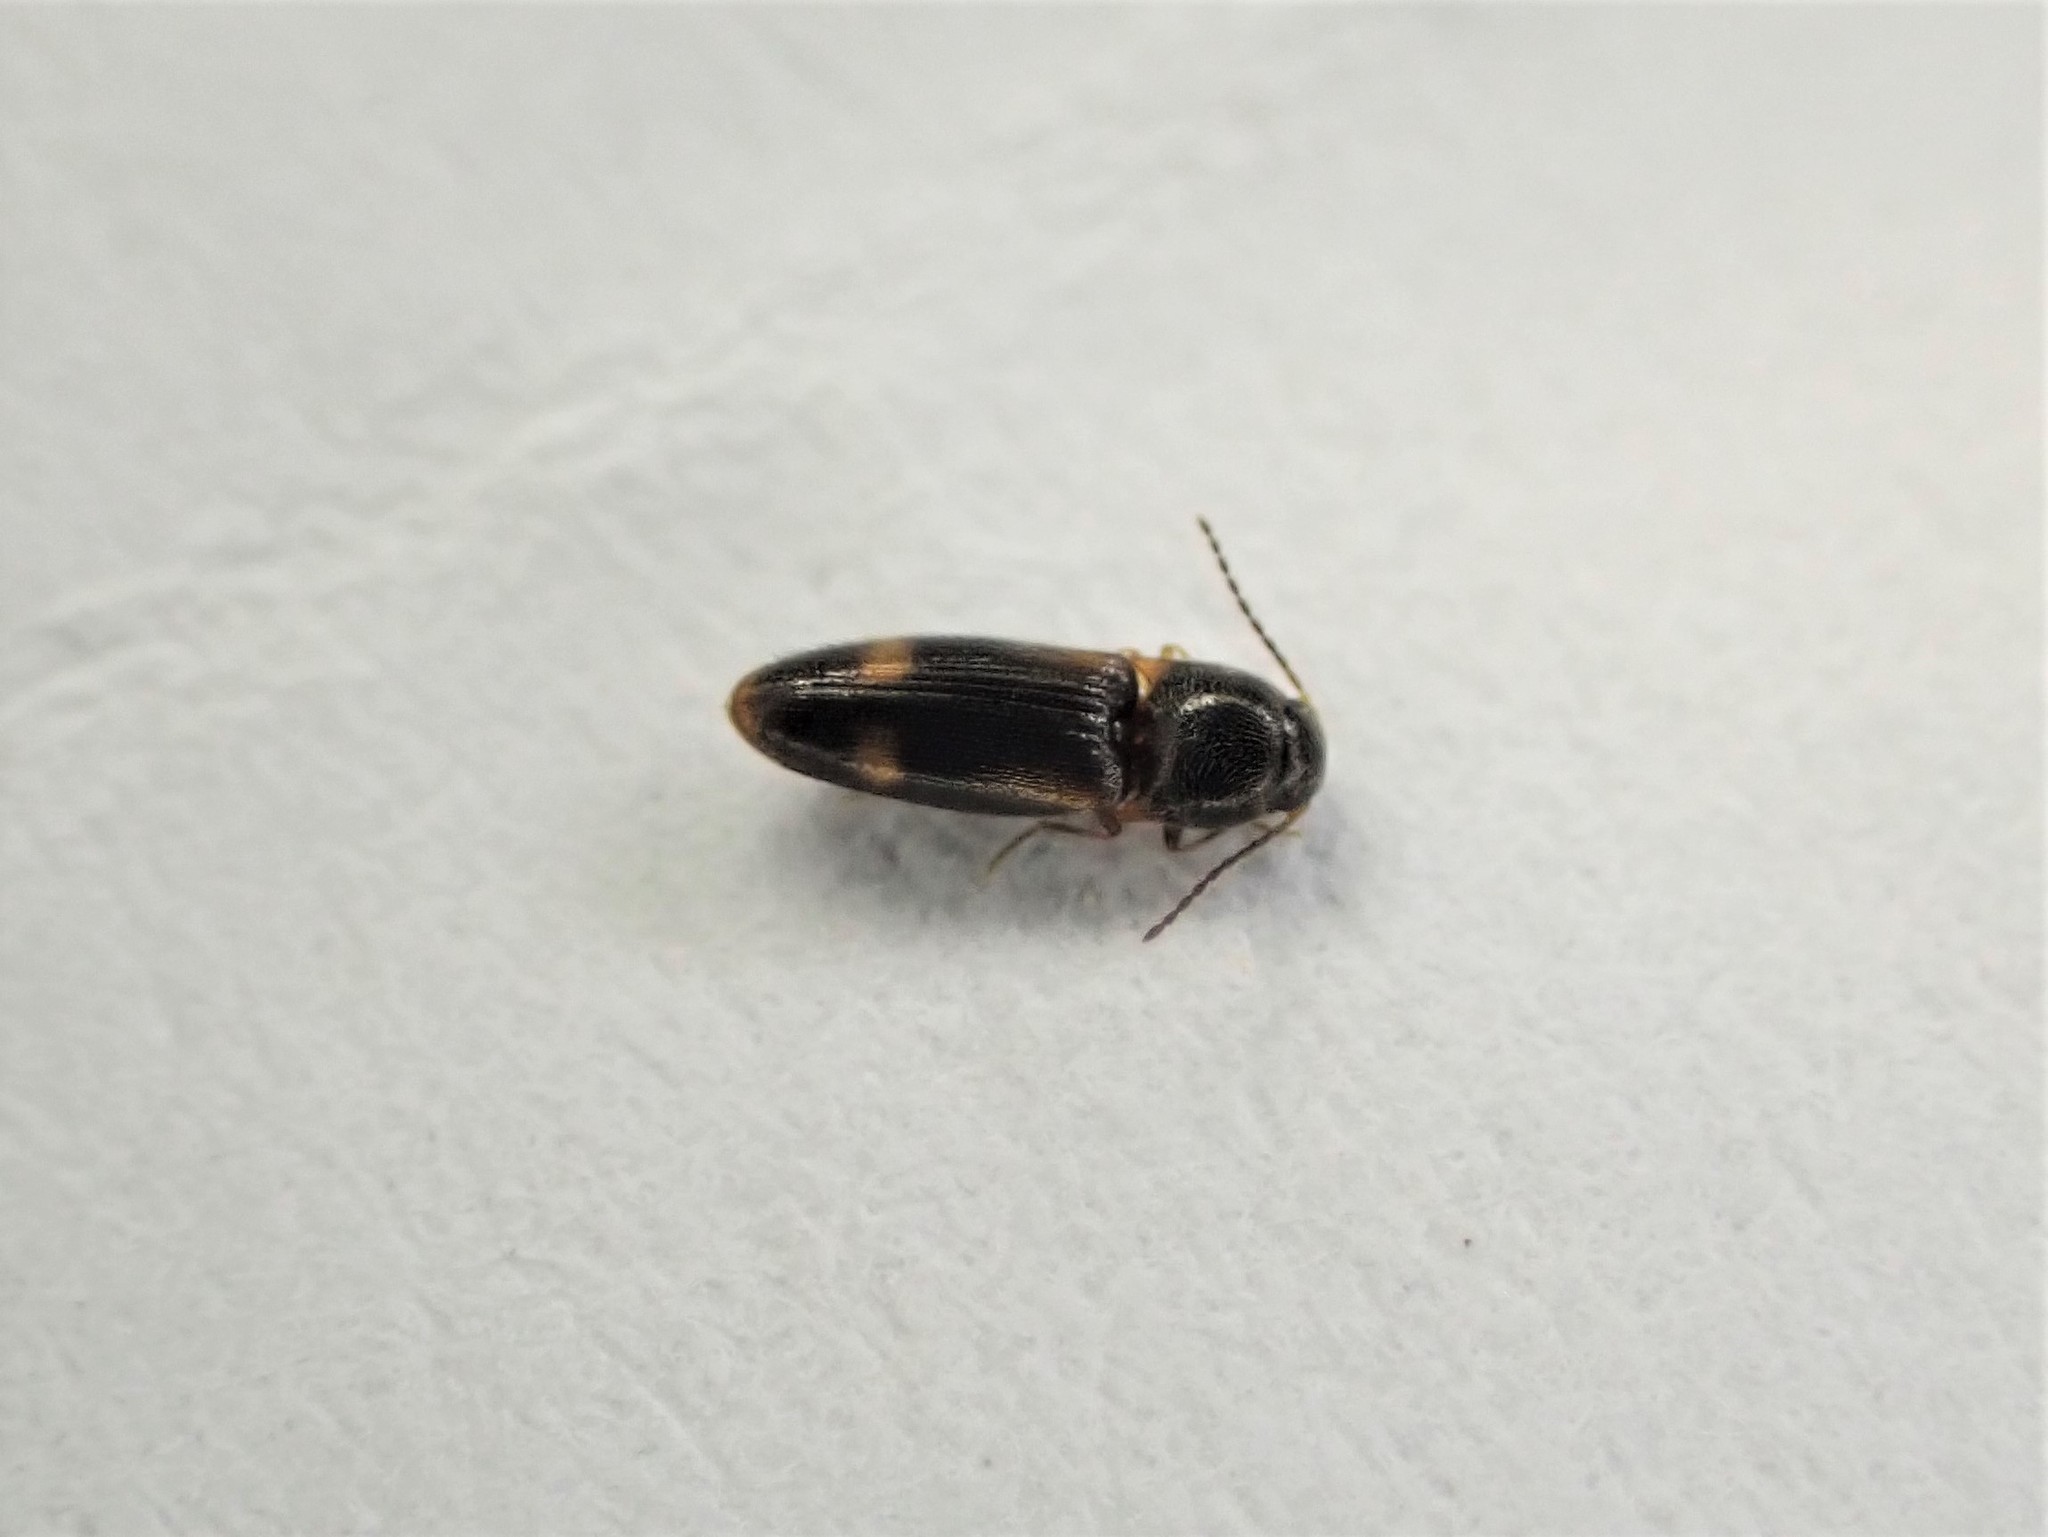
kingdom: Animalia
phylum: Arthropoda
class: Insecta
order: Coleoptera
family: Elateridae
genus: Panspaeus
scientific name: Panspaeus guttatus
